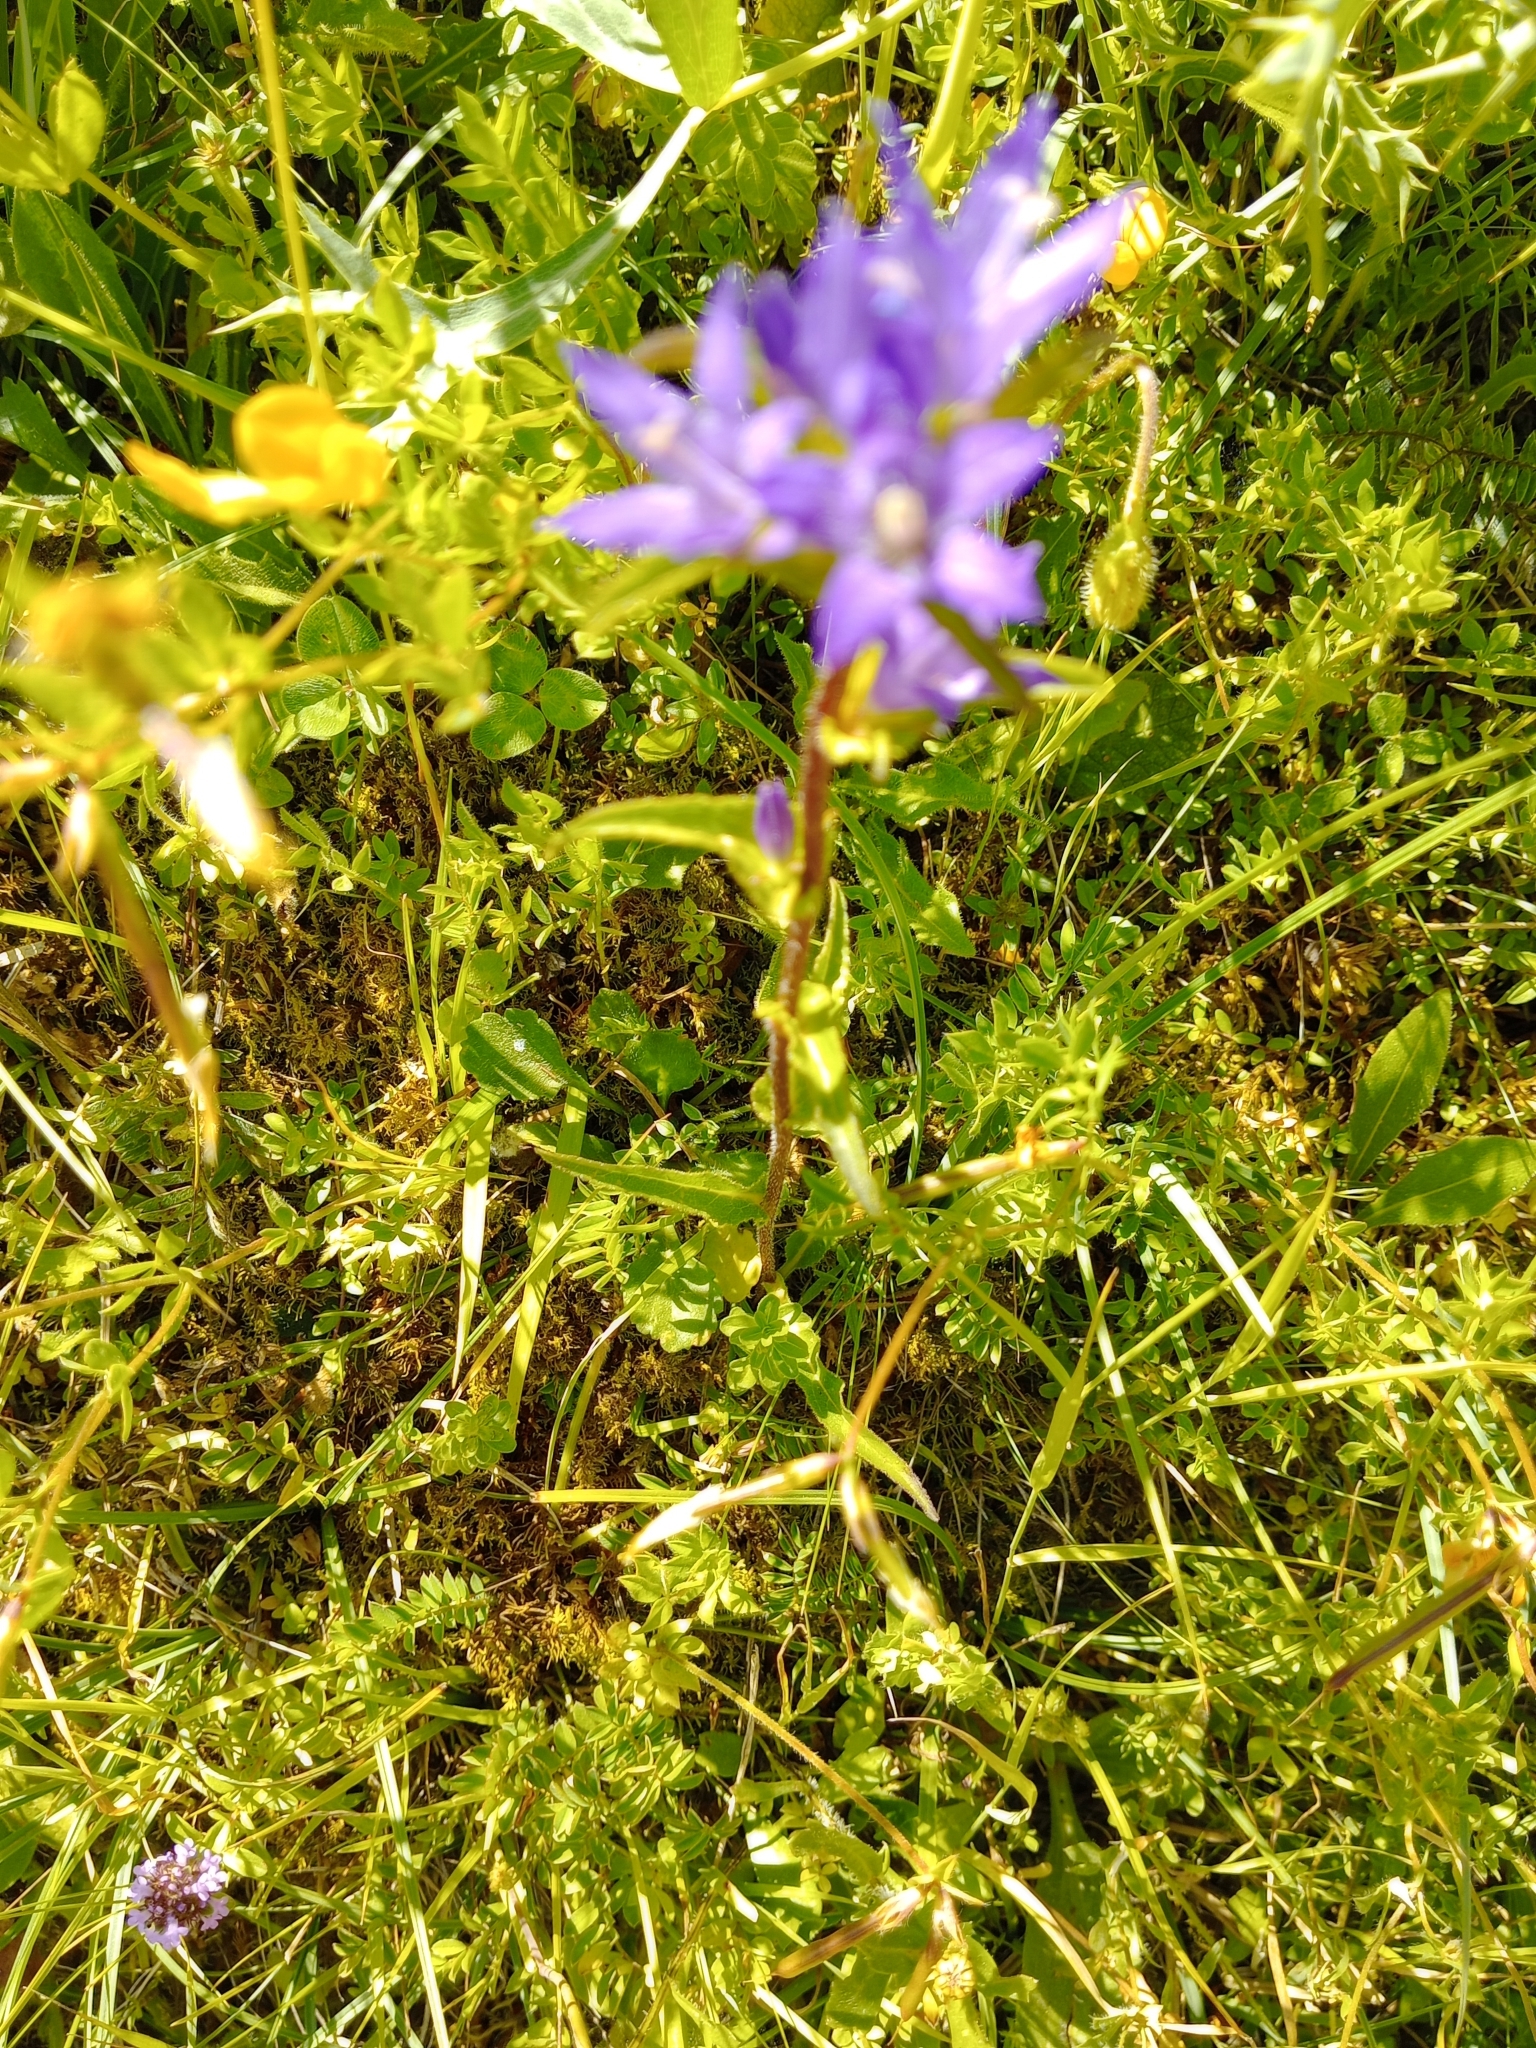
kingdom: Plantae
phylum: Tracheophyta
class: Magnoliopsida
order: Asterales
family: Campanulaceae
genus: Campanula
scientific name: Campanula glomerata
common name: Clustered bellflower
